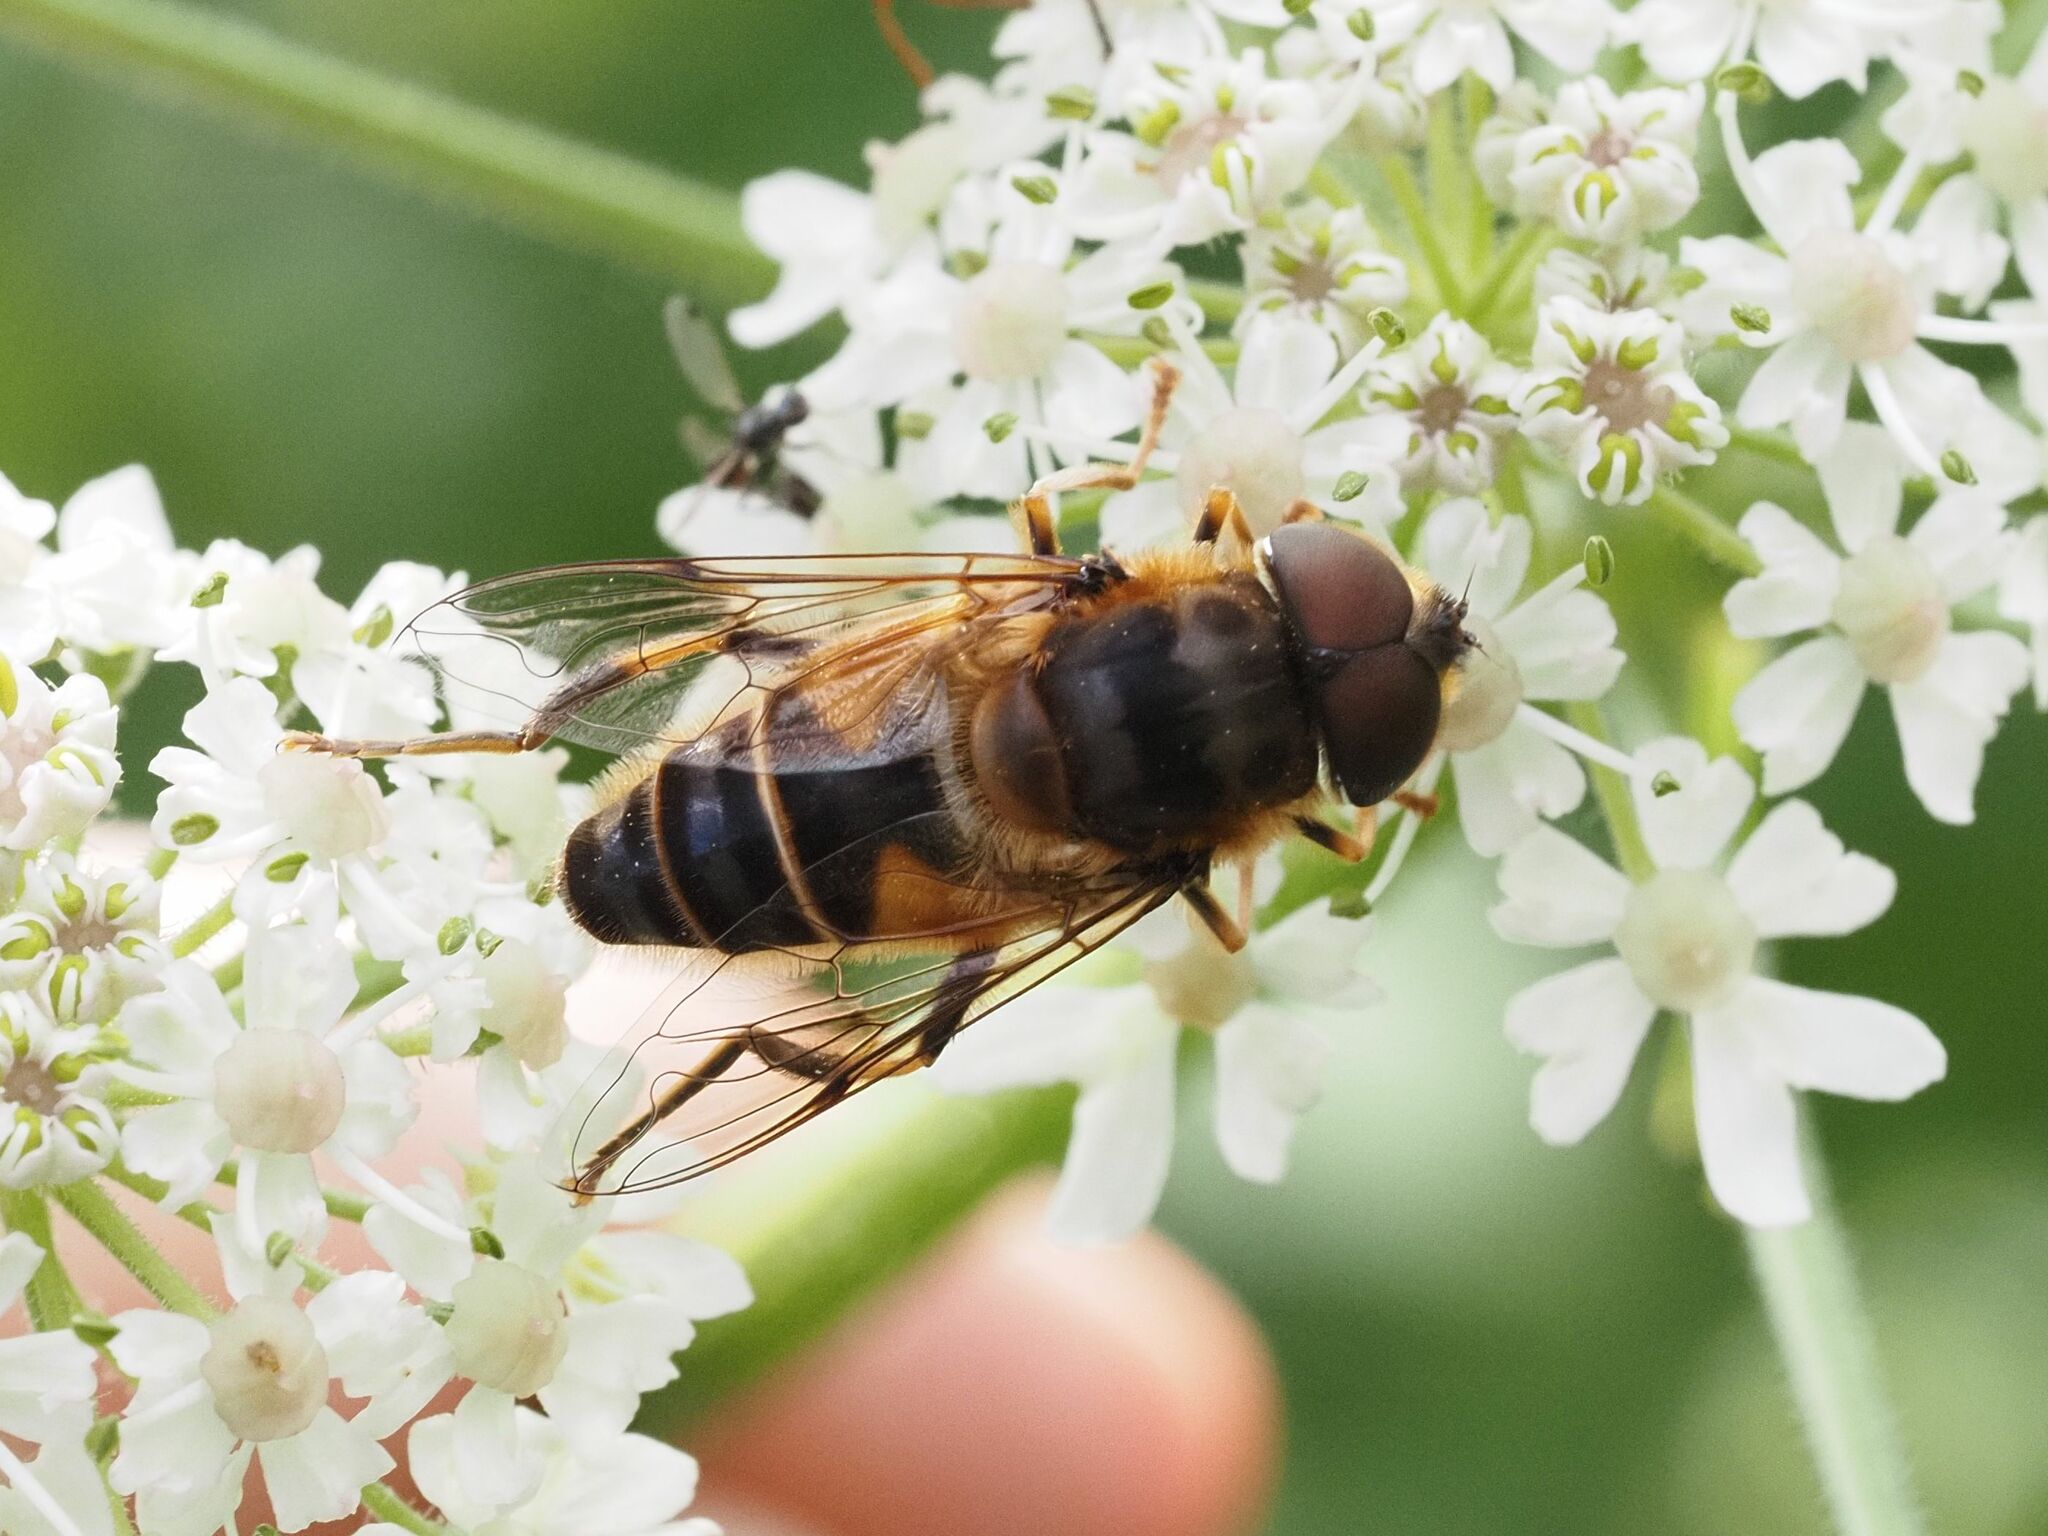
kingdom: Animalia
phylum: Arthropoda
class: Insecta
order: Diptera
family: Syrphidae
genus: Eristalis
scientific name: Eristalis pertinax
